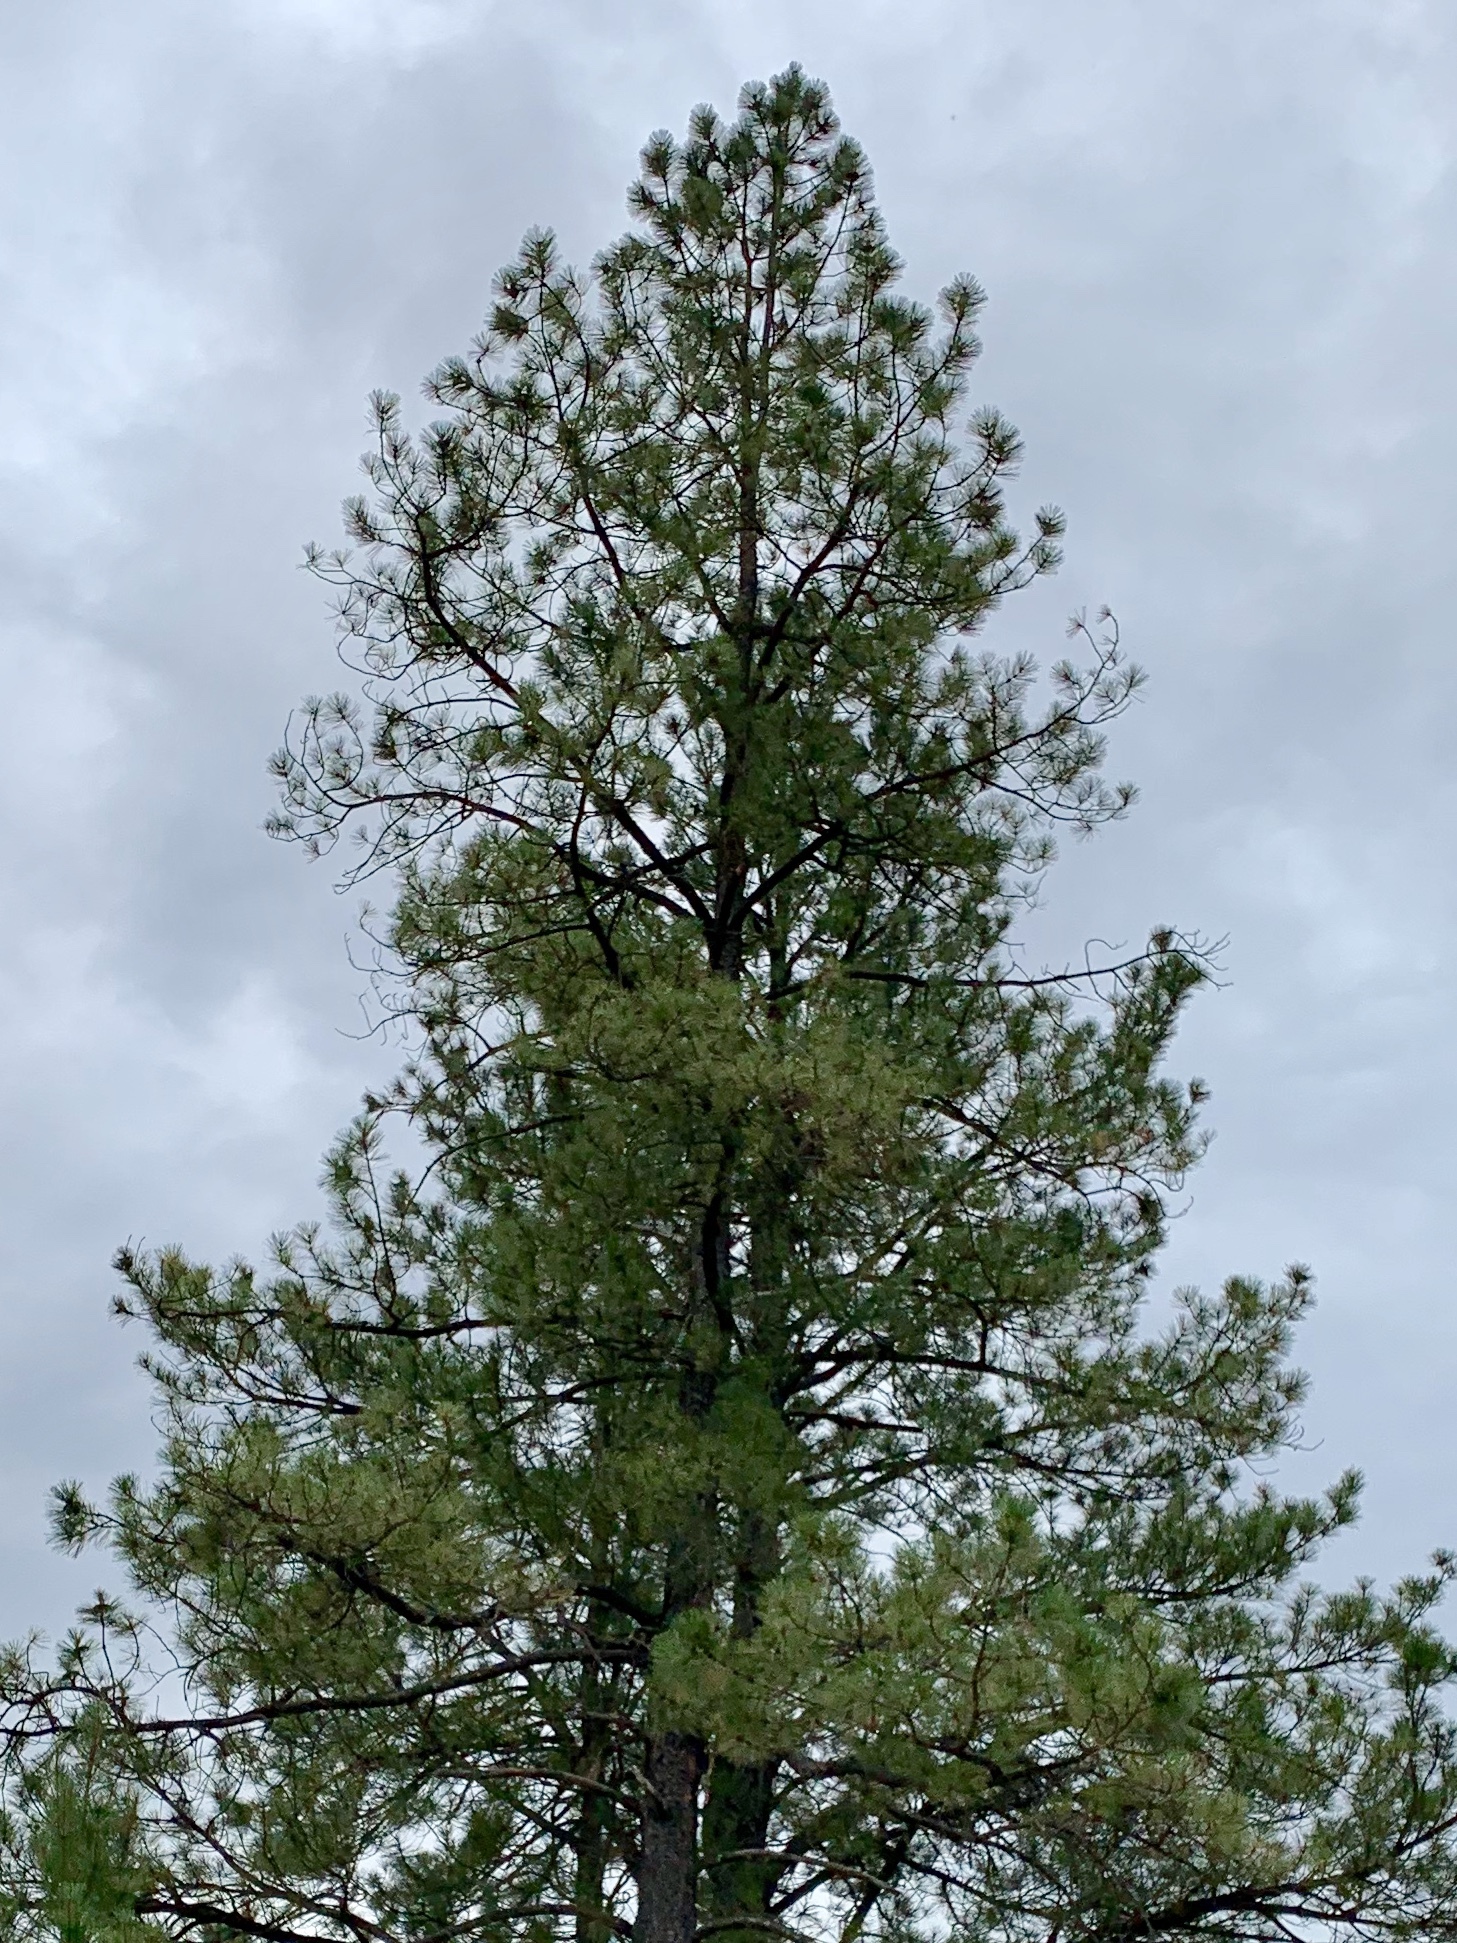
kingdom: Plantae
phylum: Tracheophyta
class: Pinopsida
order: Pinales
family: Pinaceae
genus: Pinus
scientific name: Pinus ponderosa
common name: Western yellow-pine
